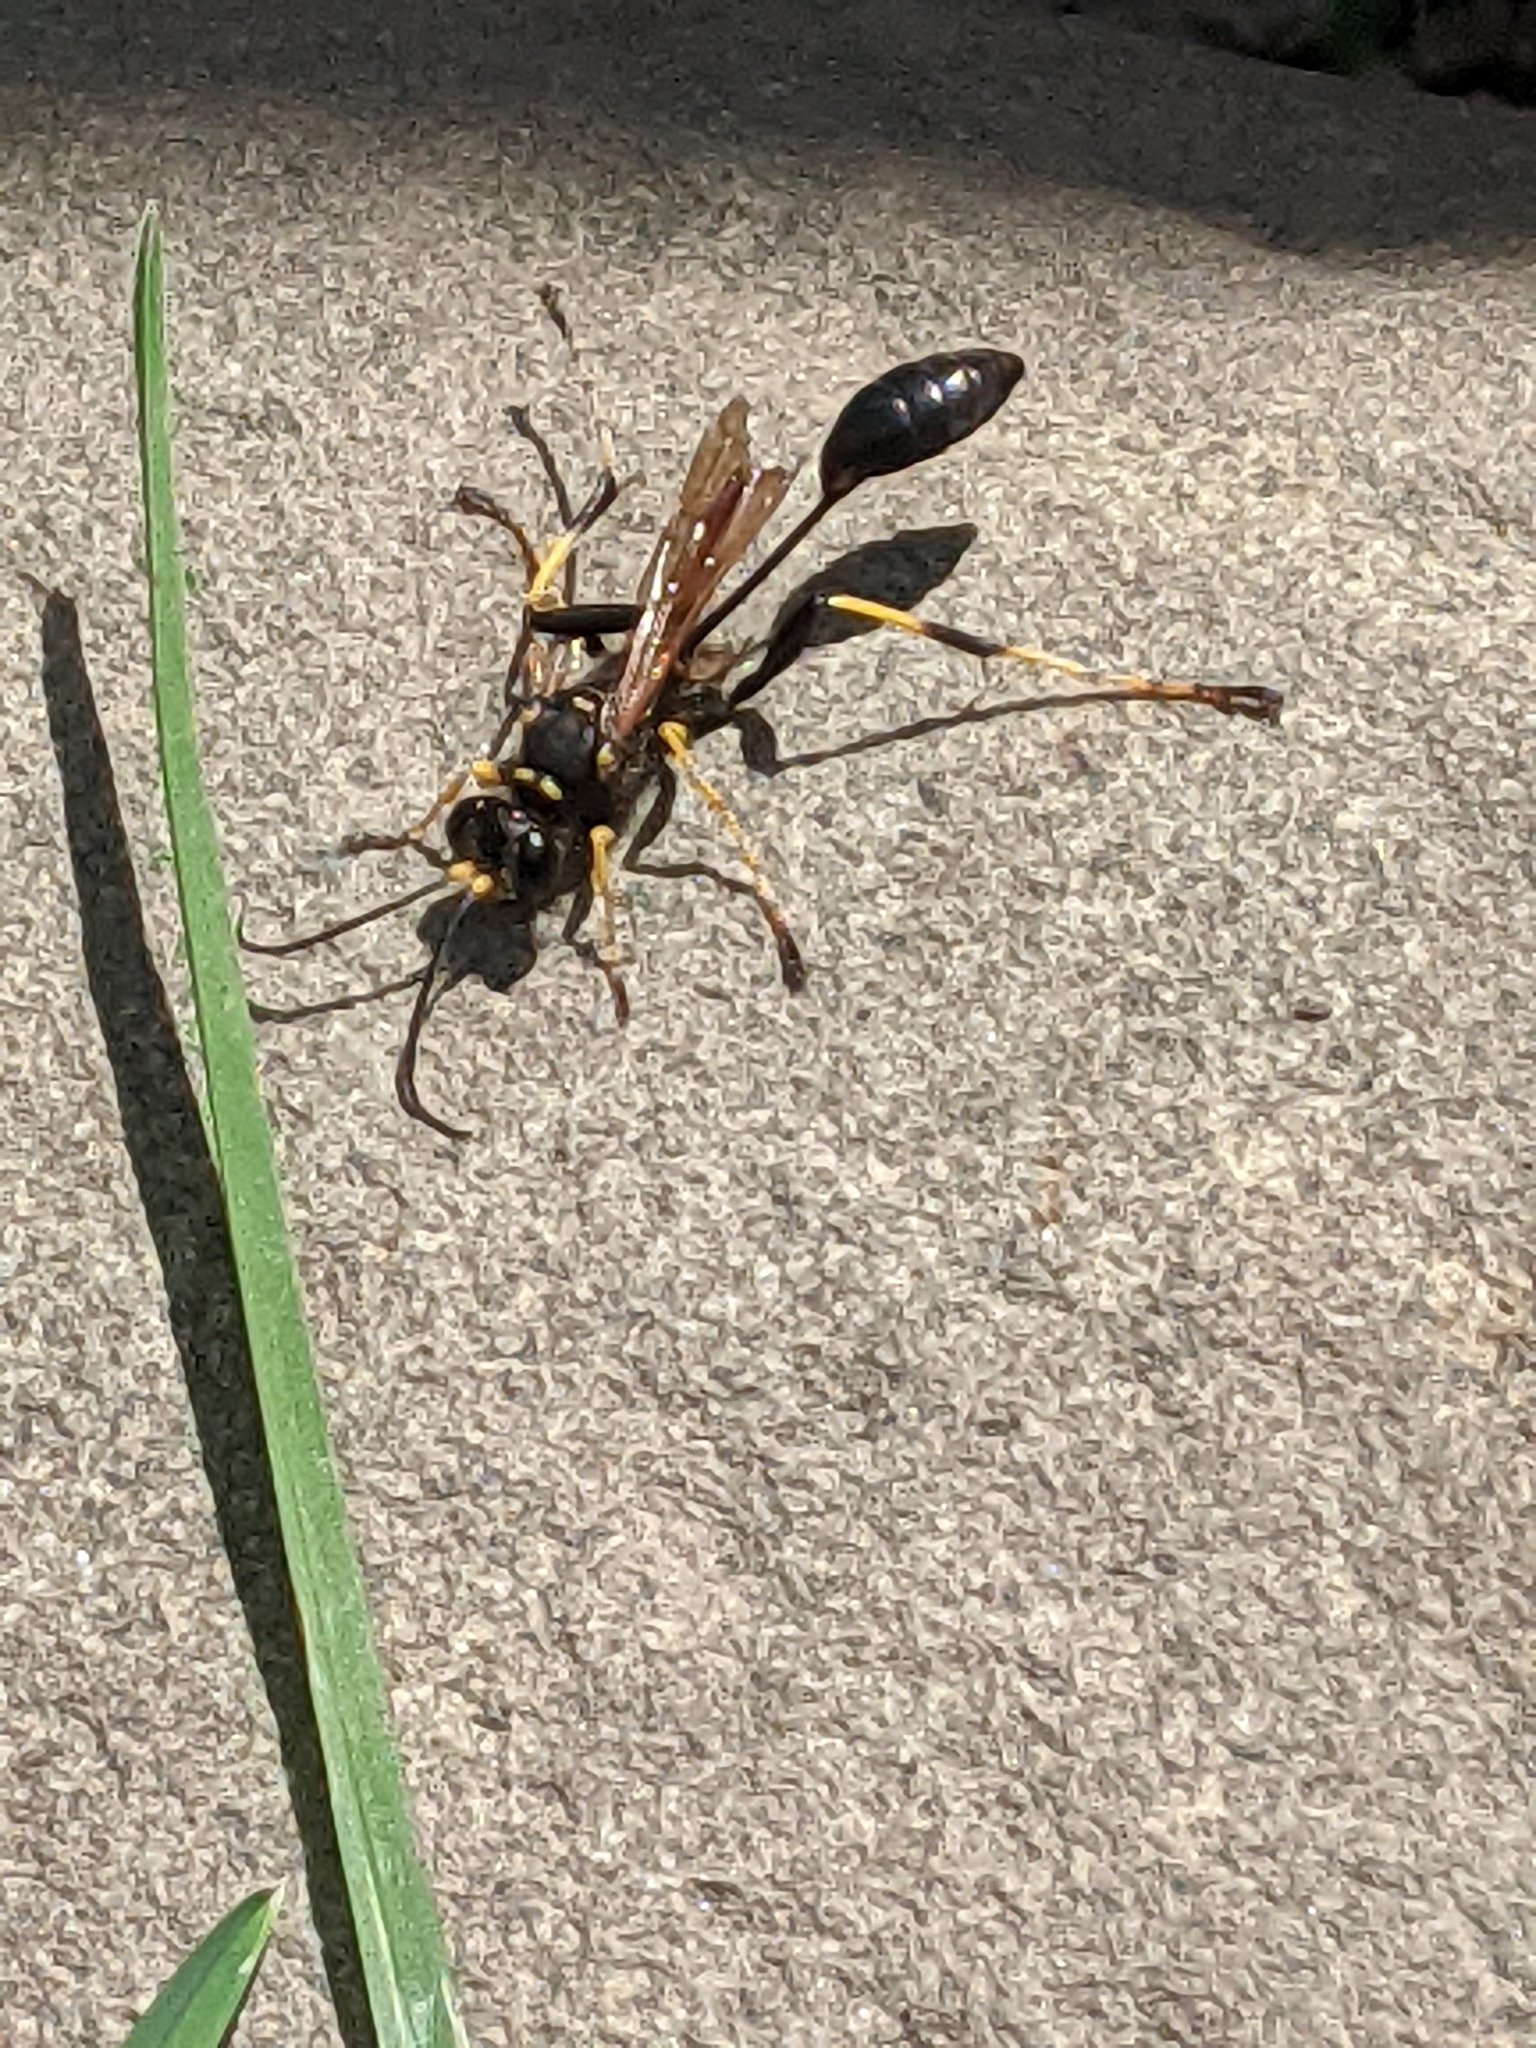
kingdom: Animalia
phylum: Arthropoda
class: Insecta
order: Hymenoptera
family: Sphecidae
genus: Sceliphron
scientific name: Sceliphron caementarium
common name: Mud dauber
